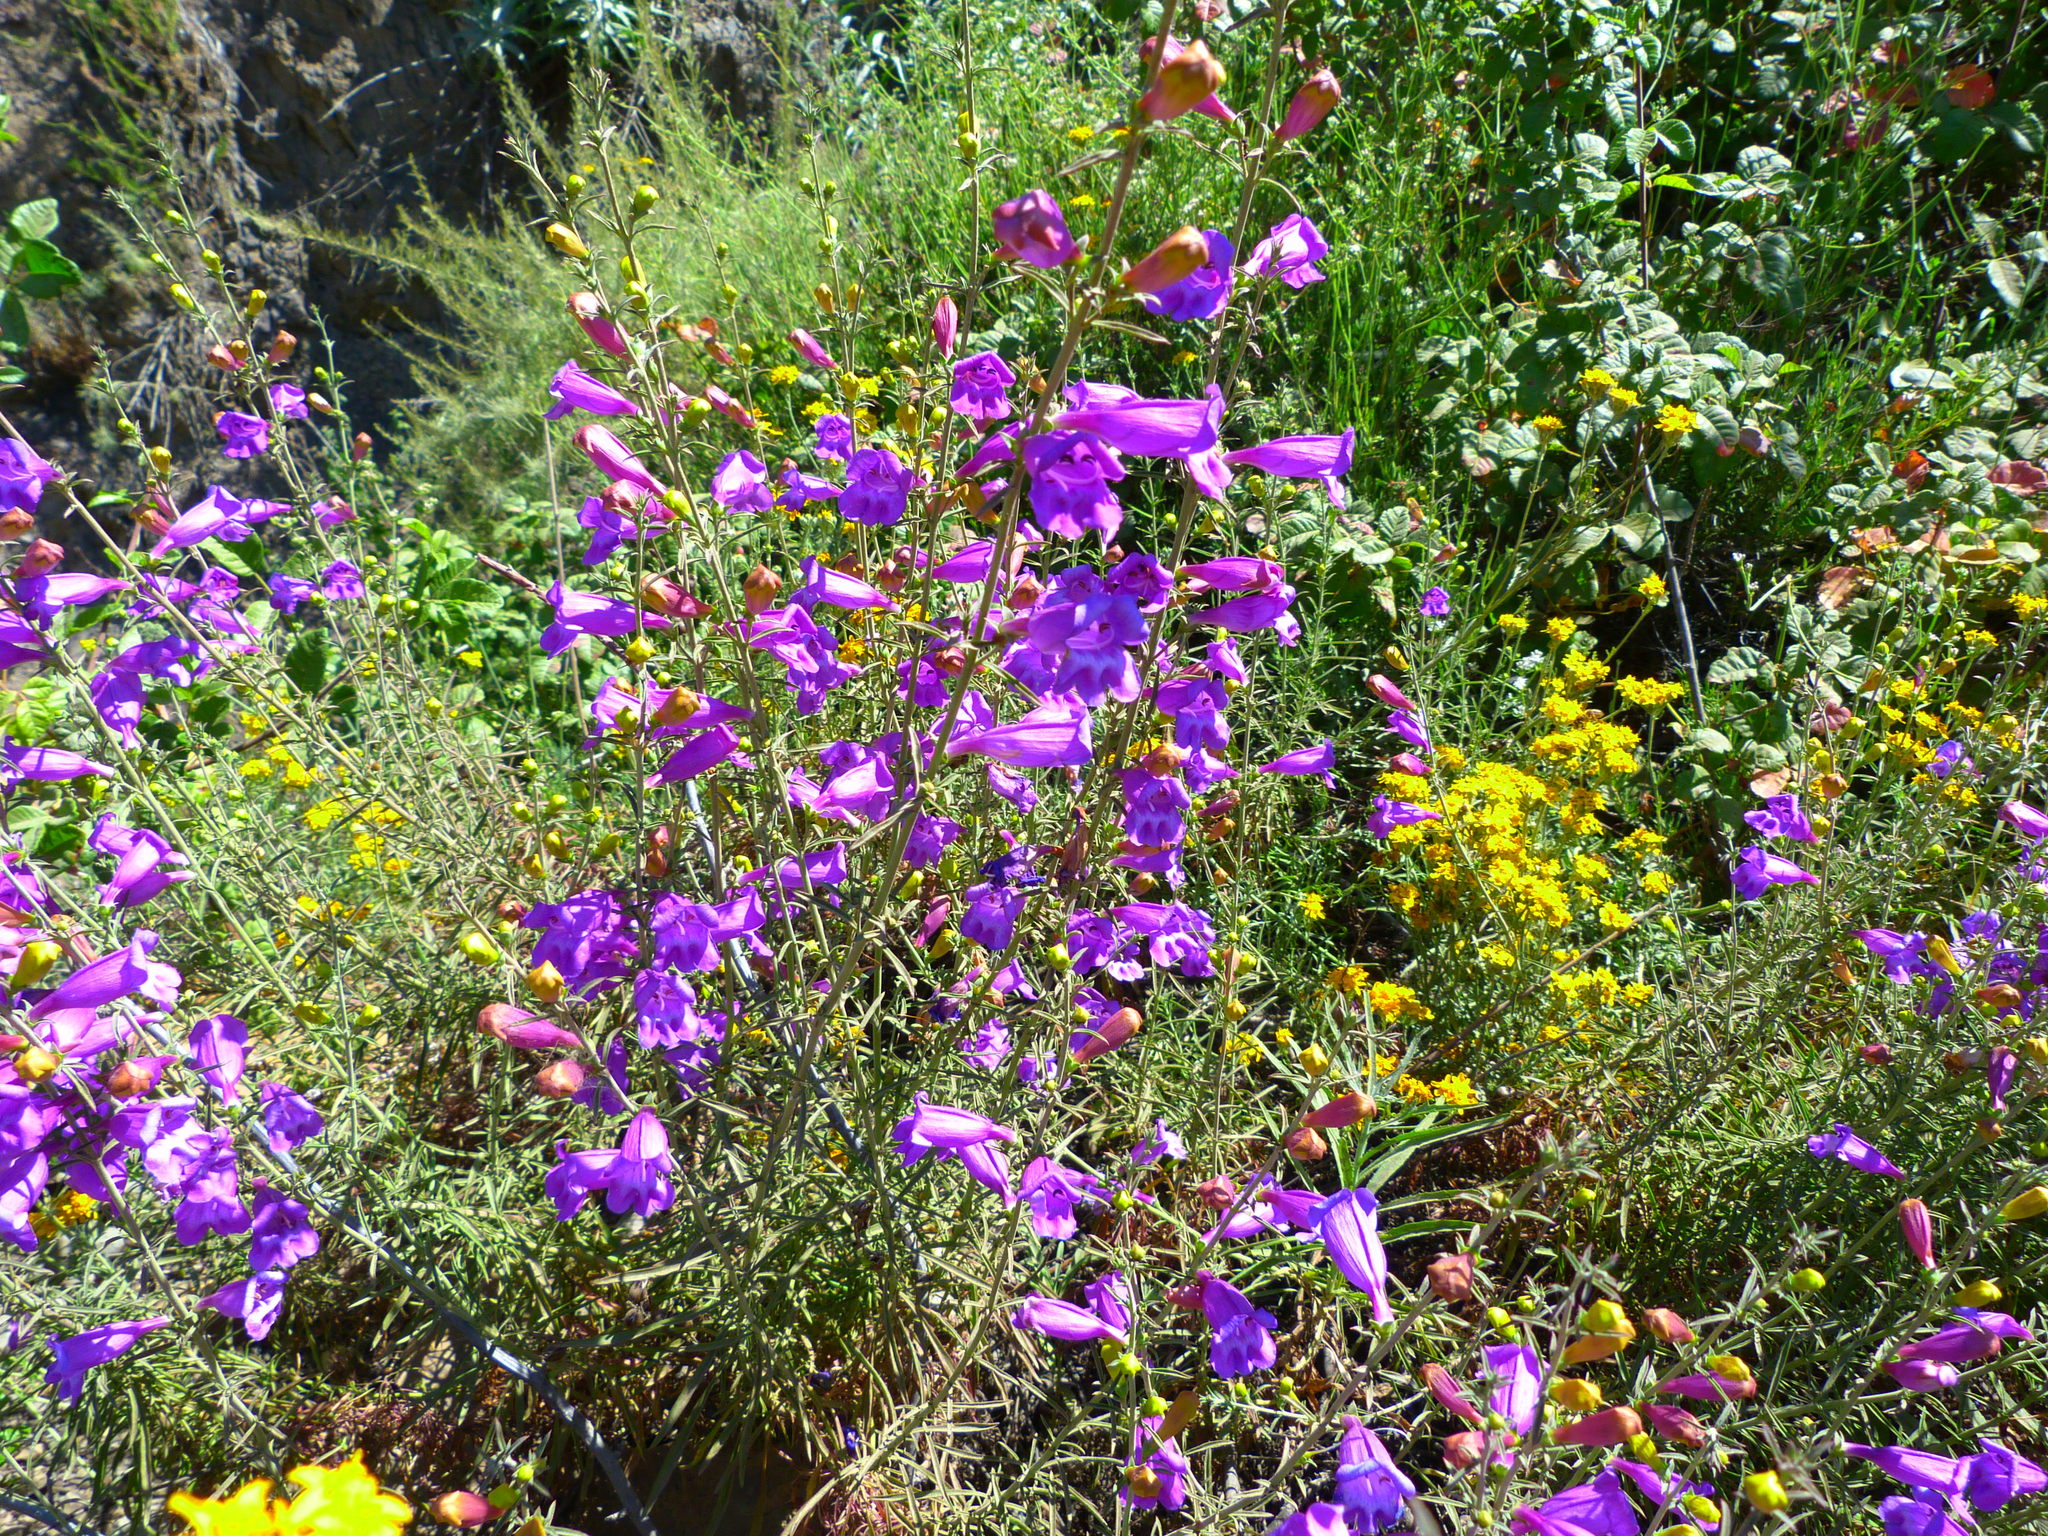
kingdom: Plantae
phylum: Tracheophyta
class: Magnoliopsida
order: Lamiales
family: Plantaginaceae
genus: Penstemon
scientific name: Penstemon heterophyllus
